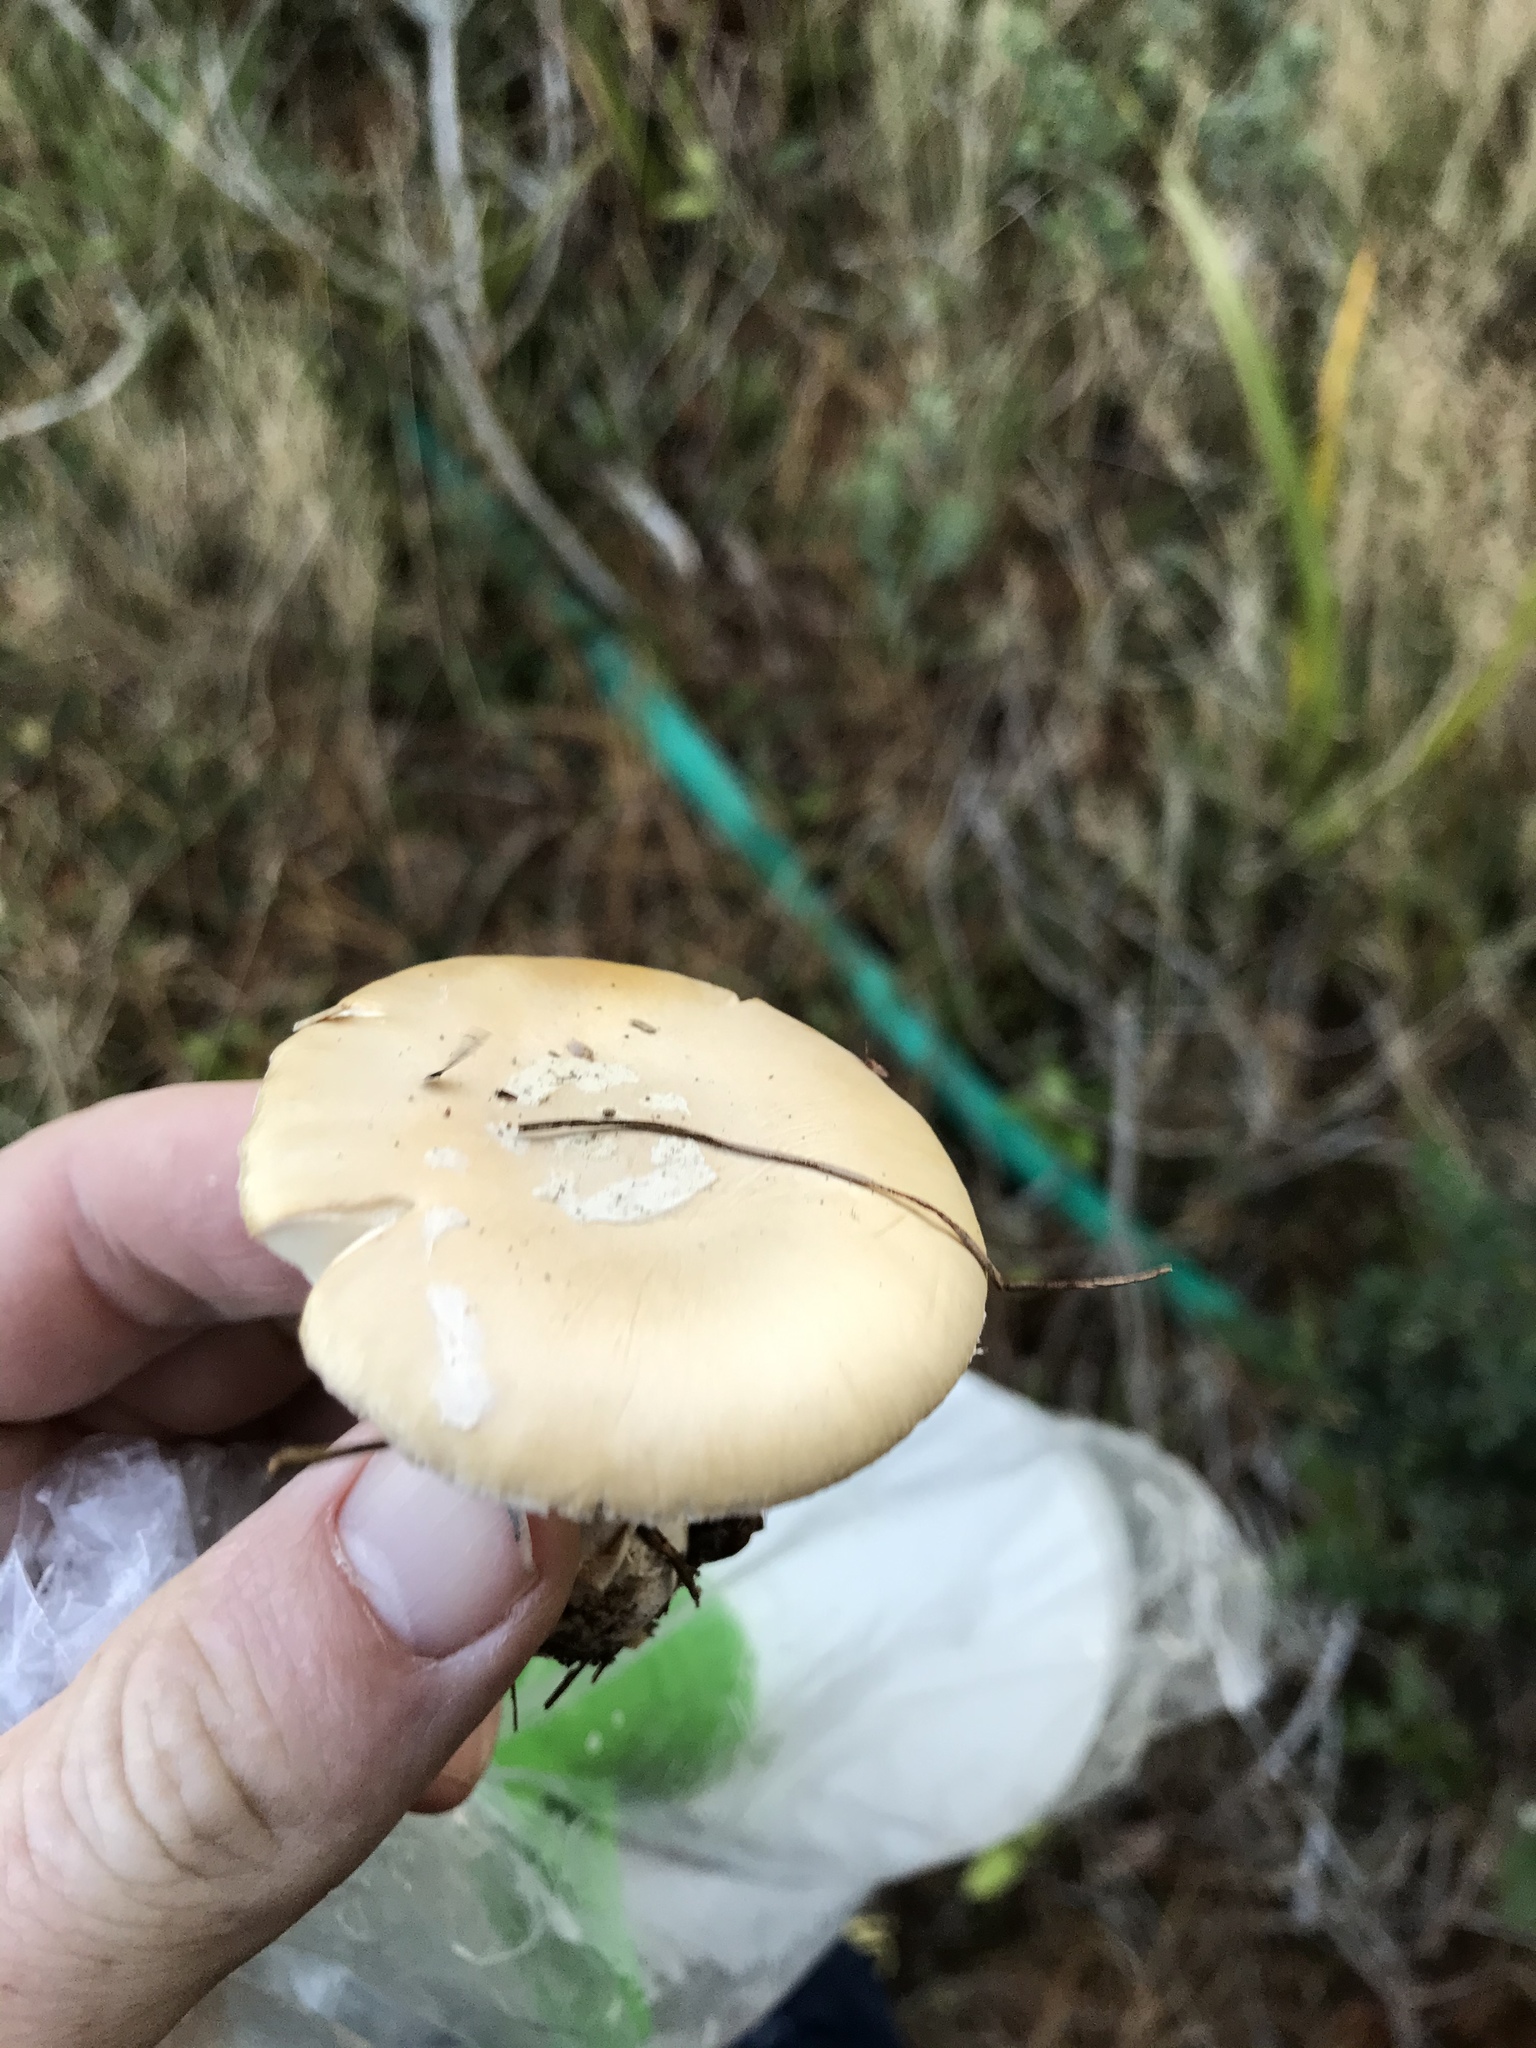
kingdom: Fungi
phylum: Basidiomycota
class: Agaricomycetes
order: Agaricales
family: Amanitaceae
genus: Amanita
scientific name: Amanita gemmata
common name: Jewelled amanita
